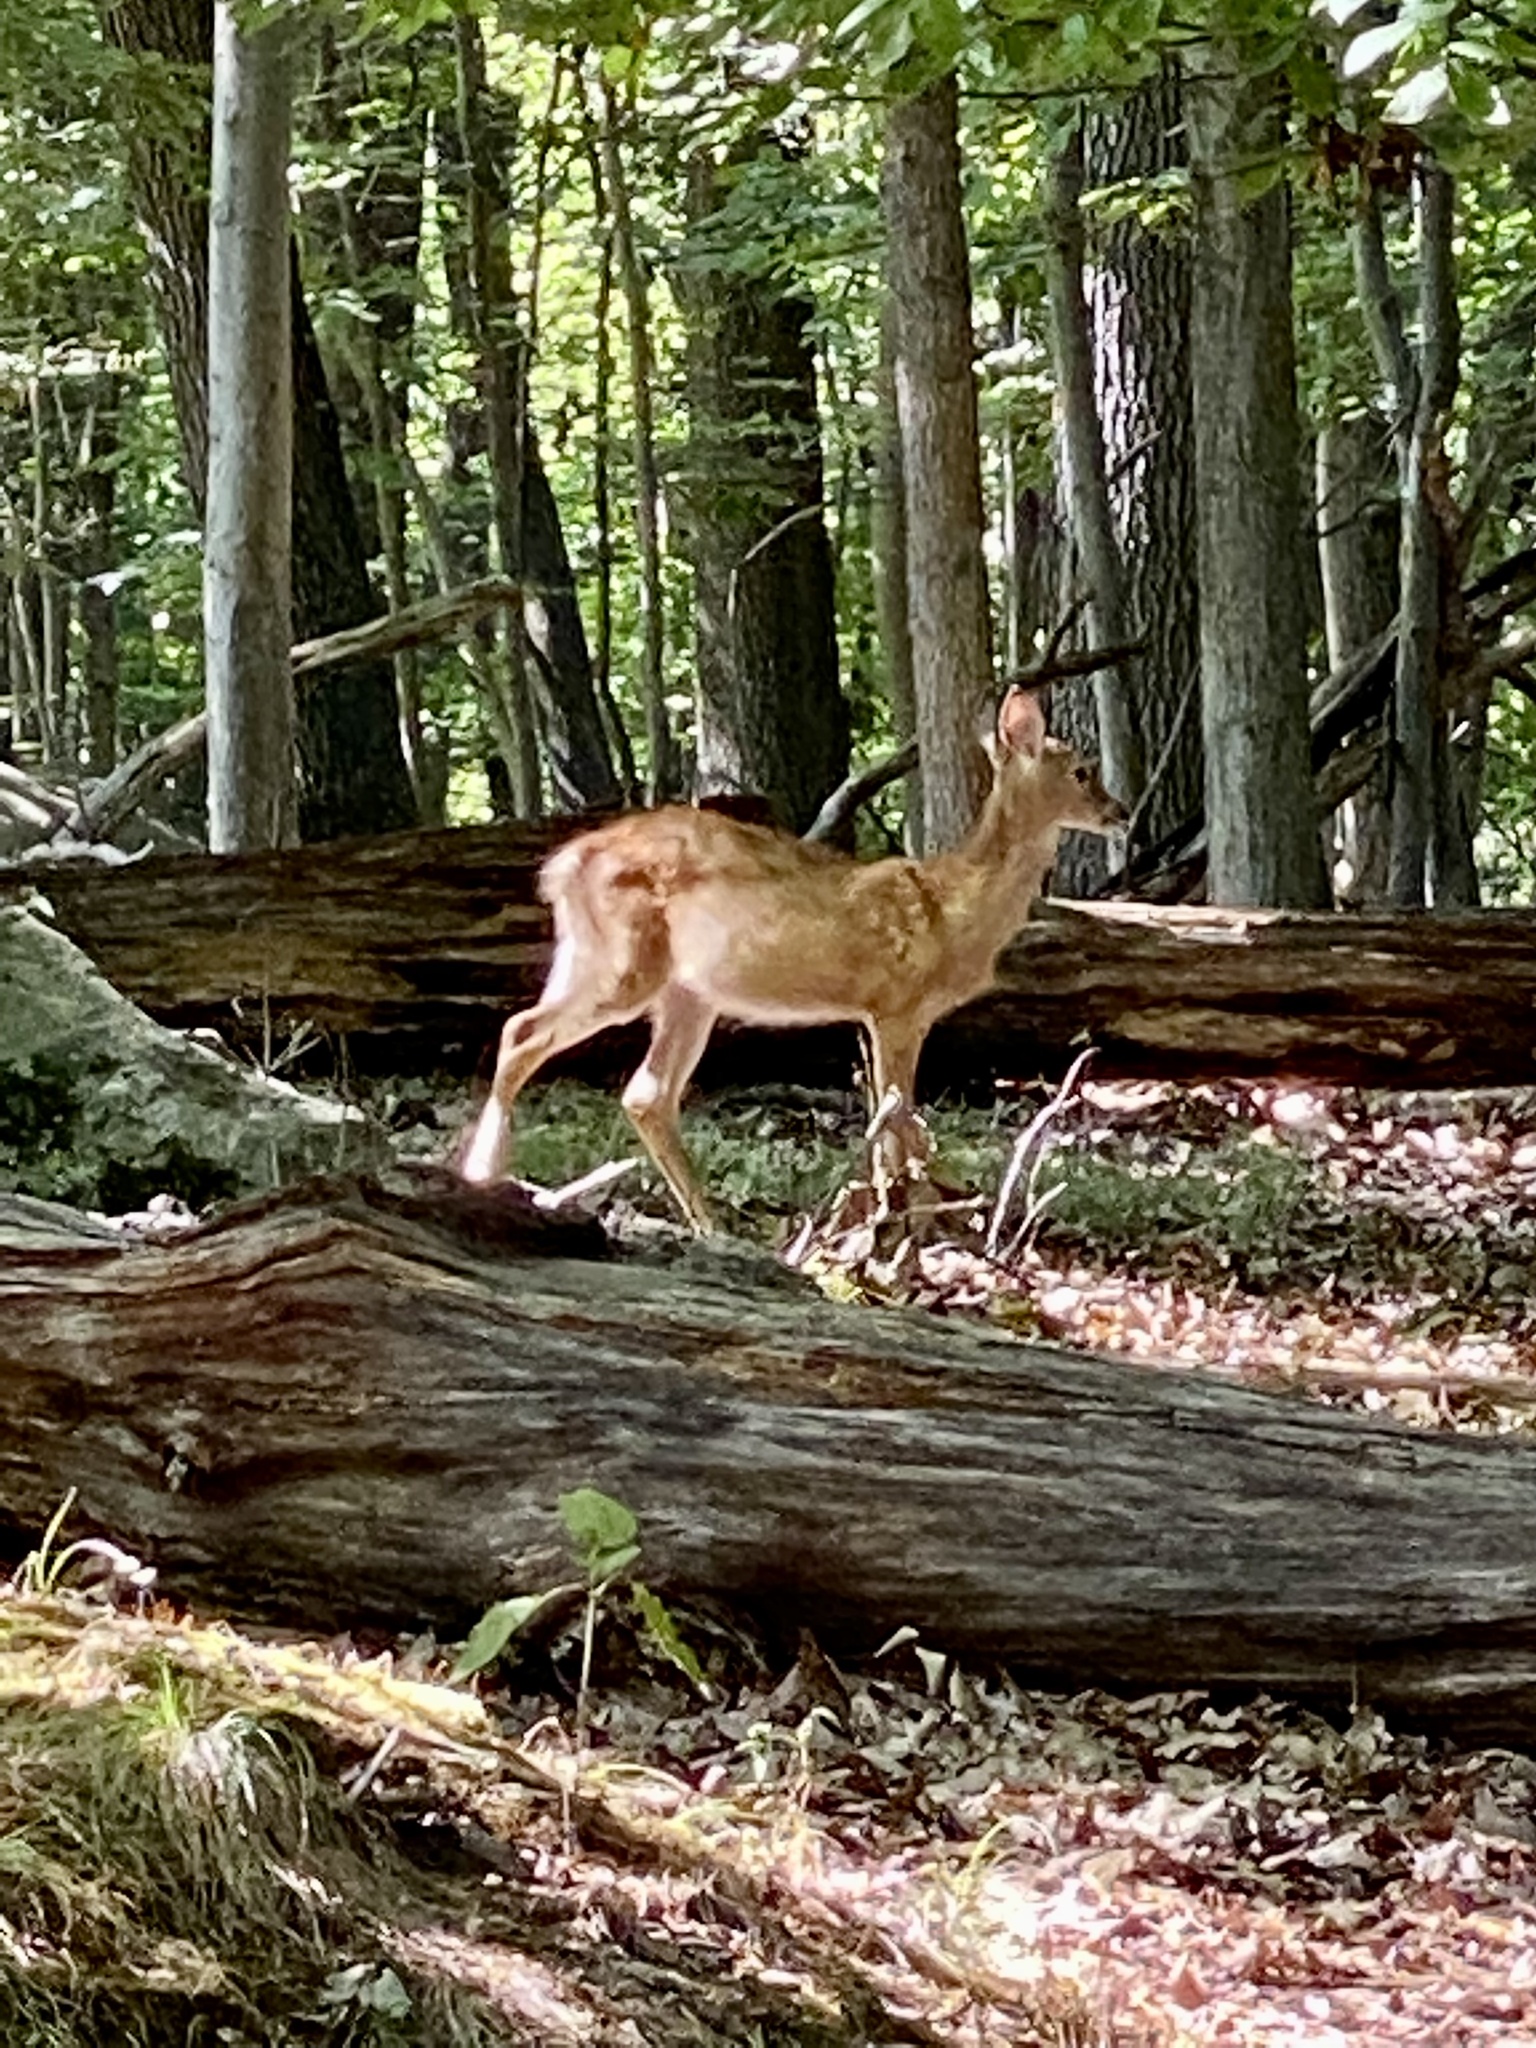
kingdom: Animalia
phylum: Chordata
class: Mammalia
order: Artiodactyla
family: Cervidae
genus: Odocoileus
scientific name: Odocoileus virginianus
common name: White-tailed deer
